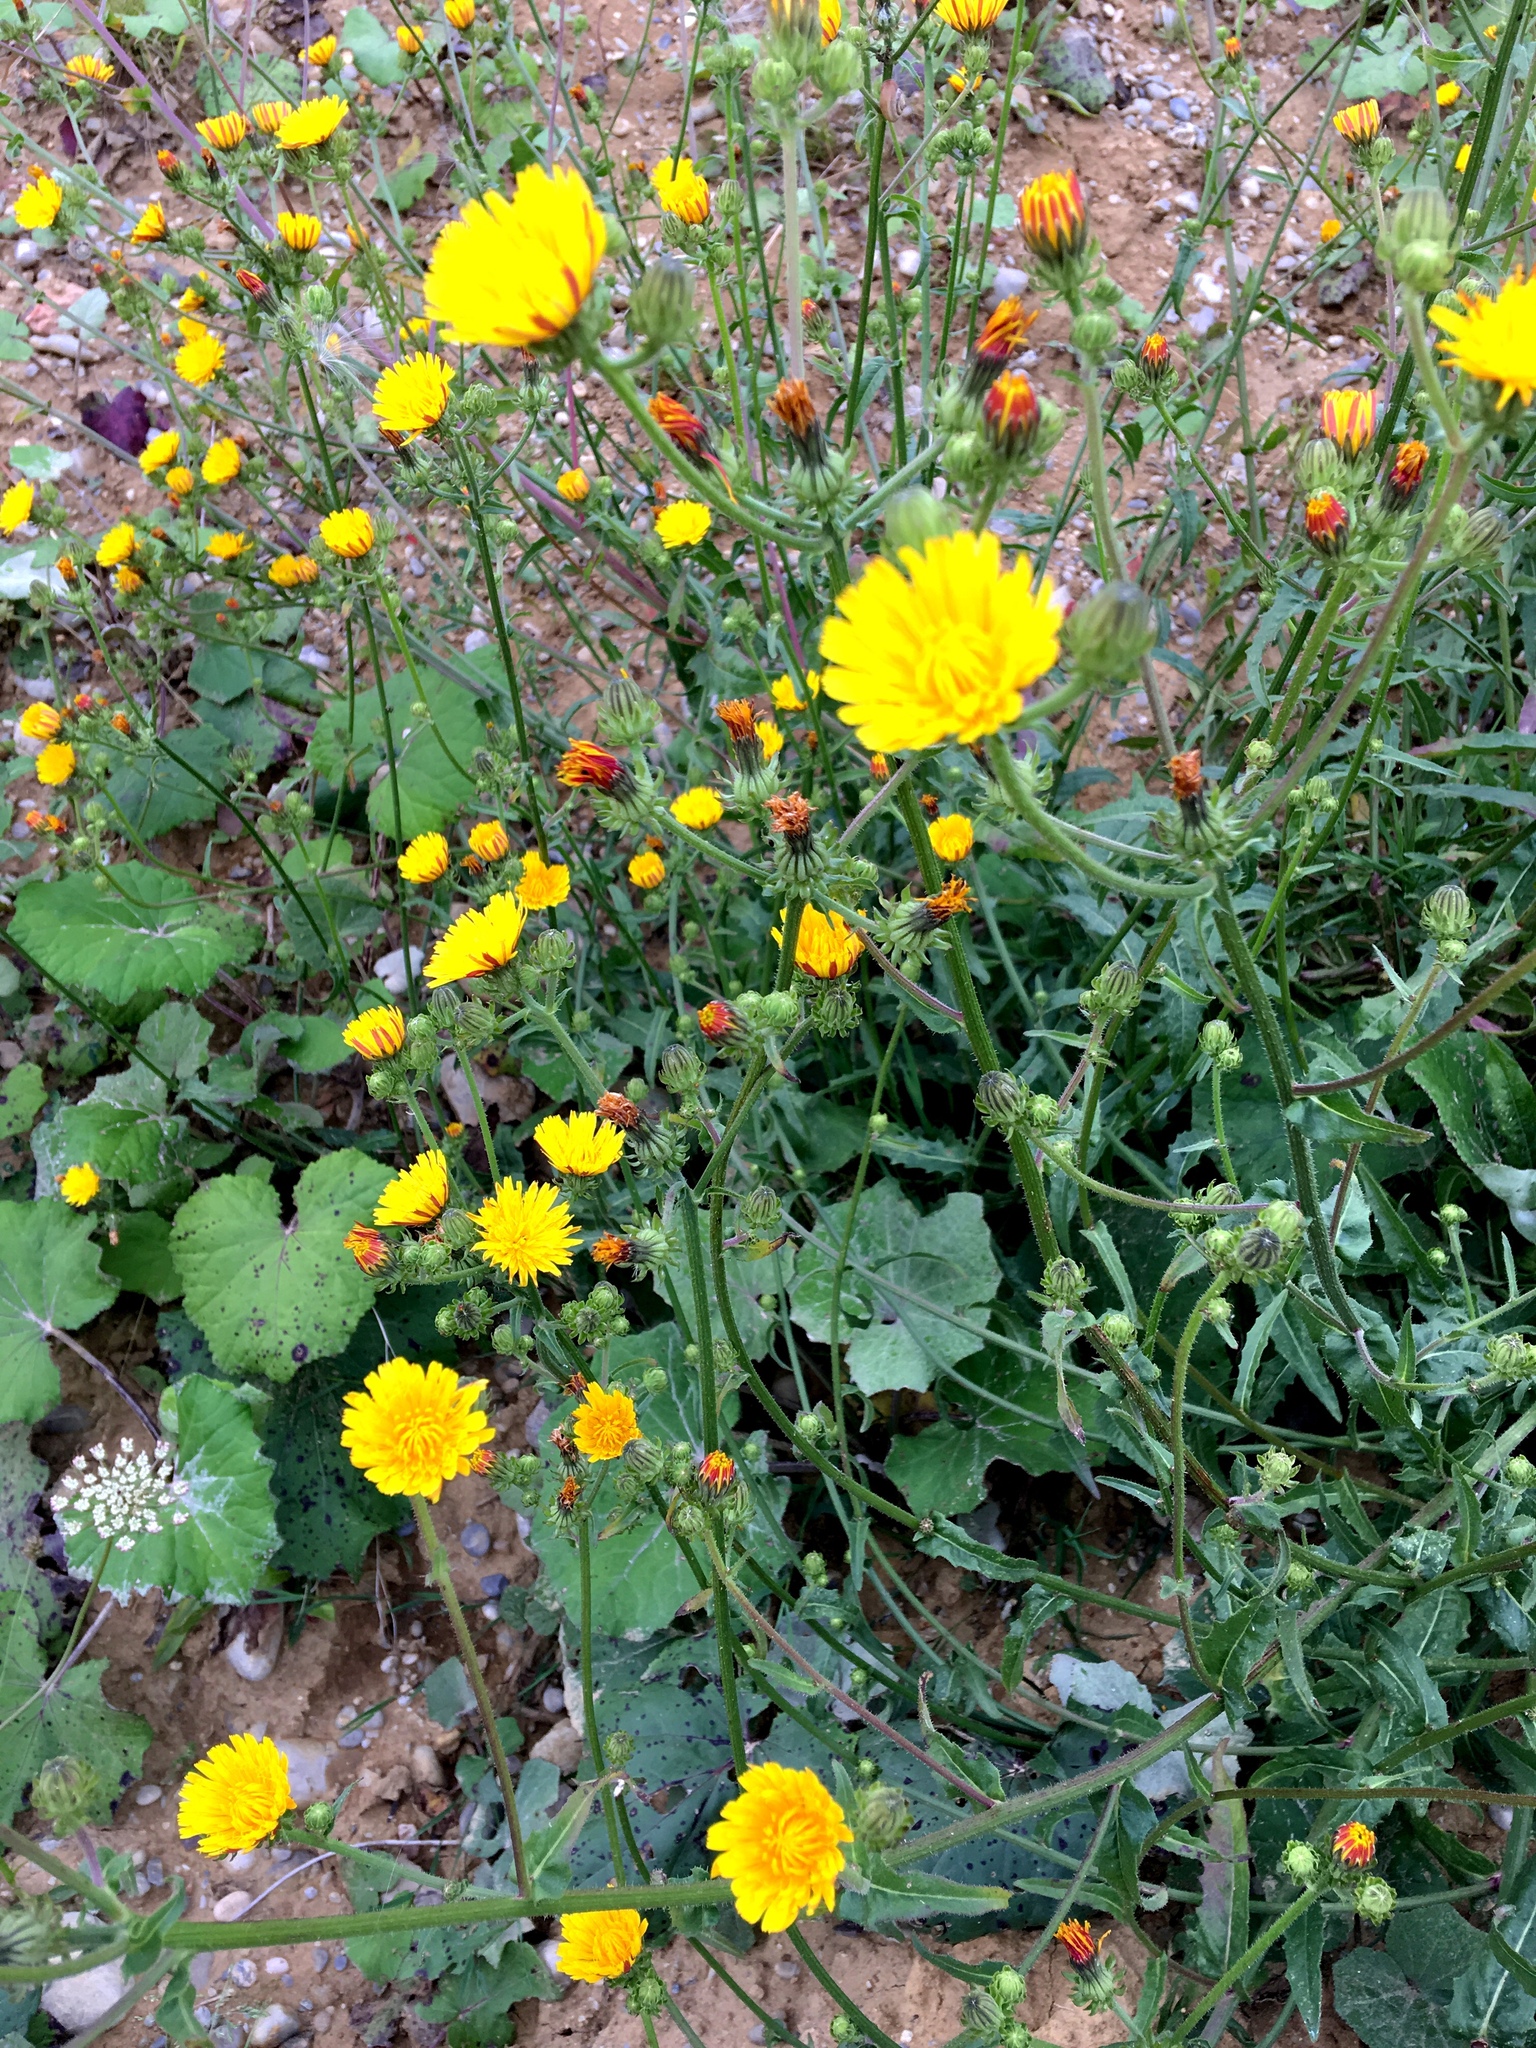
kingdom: Plantae
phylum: Tracheophyta
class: Magnoliopsida
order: Asterales
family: Asteraceae
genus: Picris
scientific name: Picris hieracioides
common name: Hawkweed oxtongue
